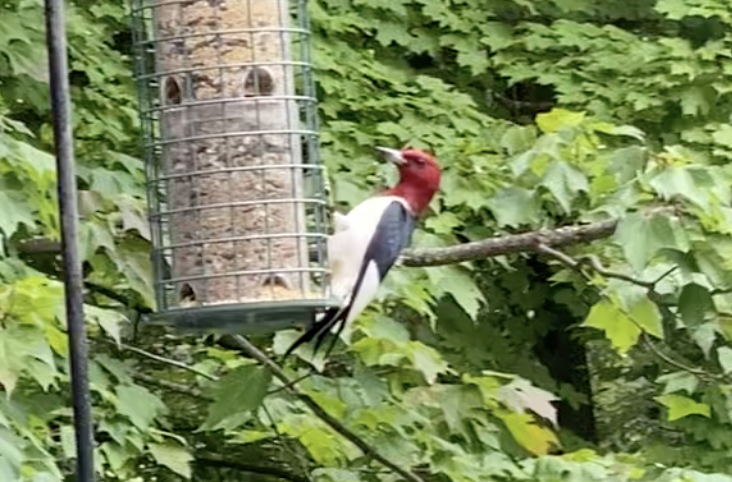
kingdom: Animalia
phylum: Chordata
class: Aves
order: Piciformes
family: Picidae
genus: Melanerpes
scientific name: Melanerpes erythrocephalus
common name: Red-headed woodpecker
